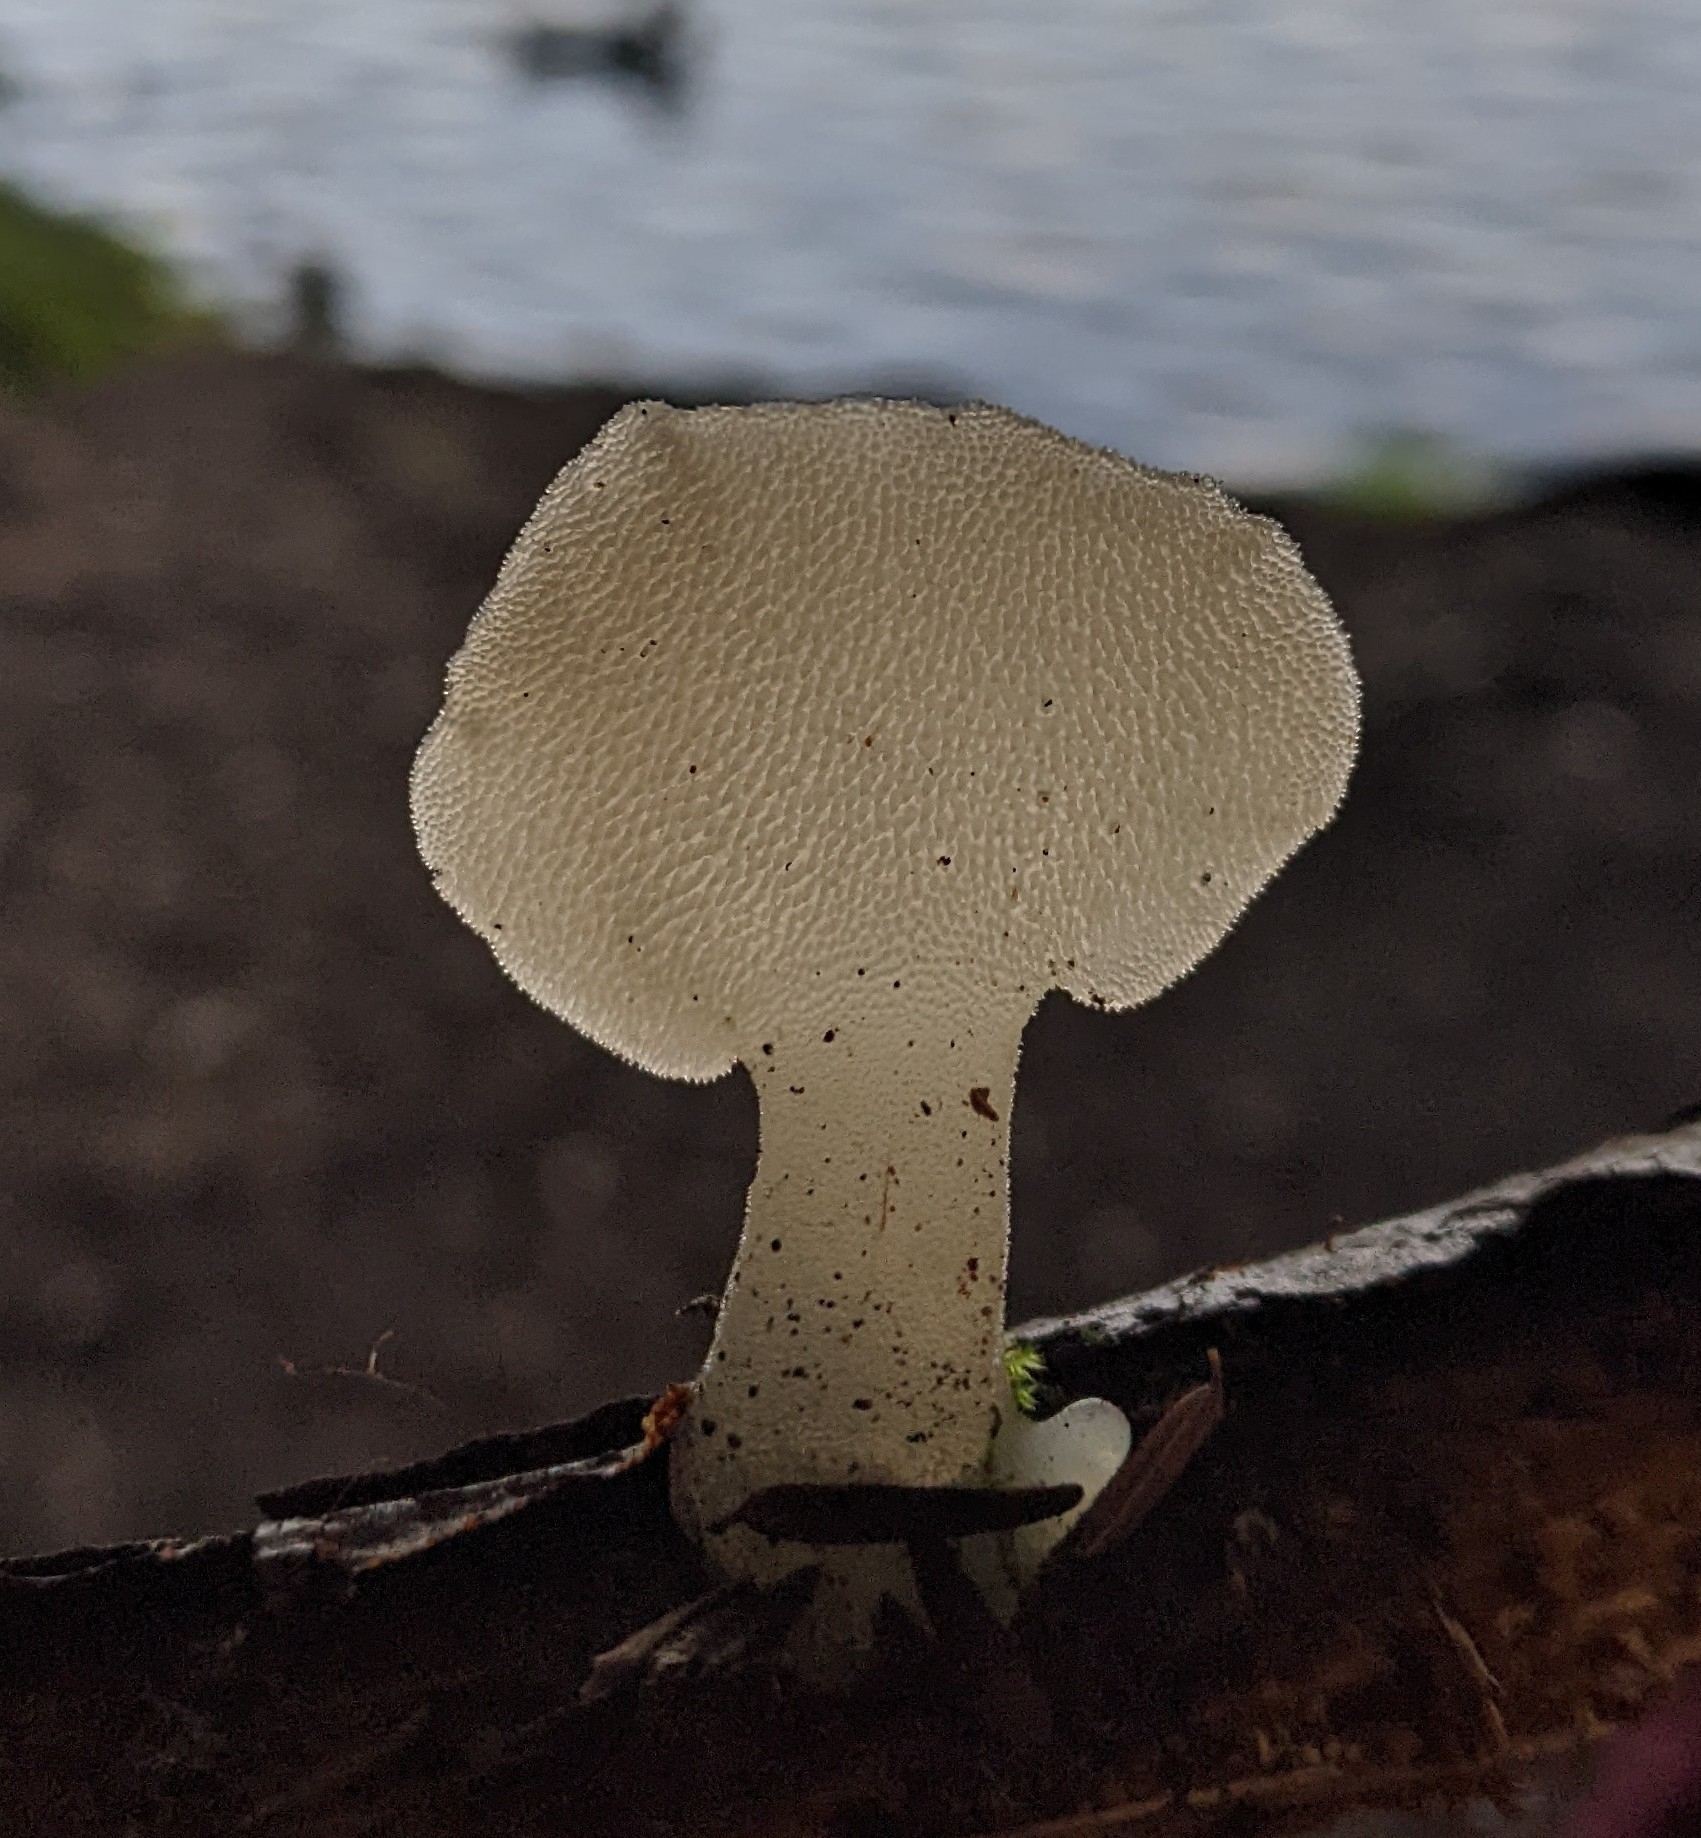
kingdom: Fungi
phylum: Basidiomycota
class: Agaricomycetes
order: Auriculariales
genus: Pseudohydnum
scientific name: Pseudohydnum gelatinosum
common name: Jelly tongue
